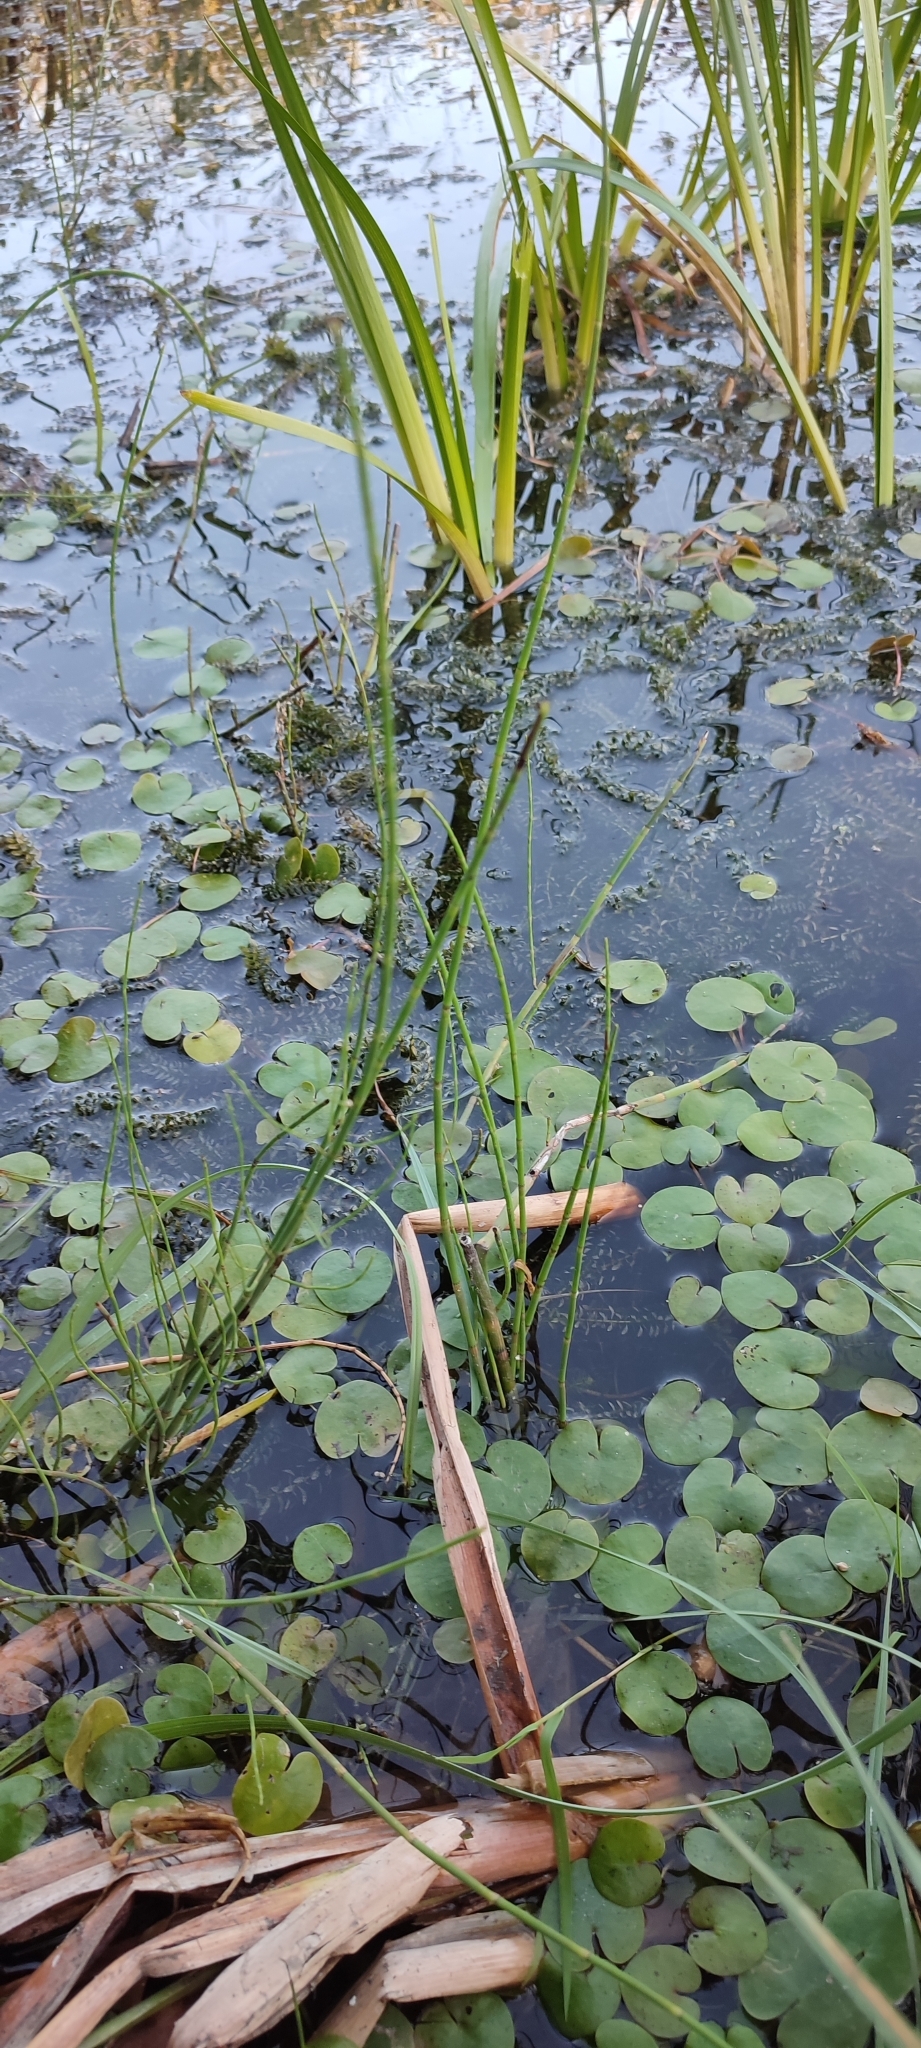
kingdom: Plantae
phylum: Tracheophyta
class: Polypodiopsida
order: Equisetales
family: Equisetaceae
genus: Equisetum
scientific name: Equisetum fluviatile
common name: Water horsetail
